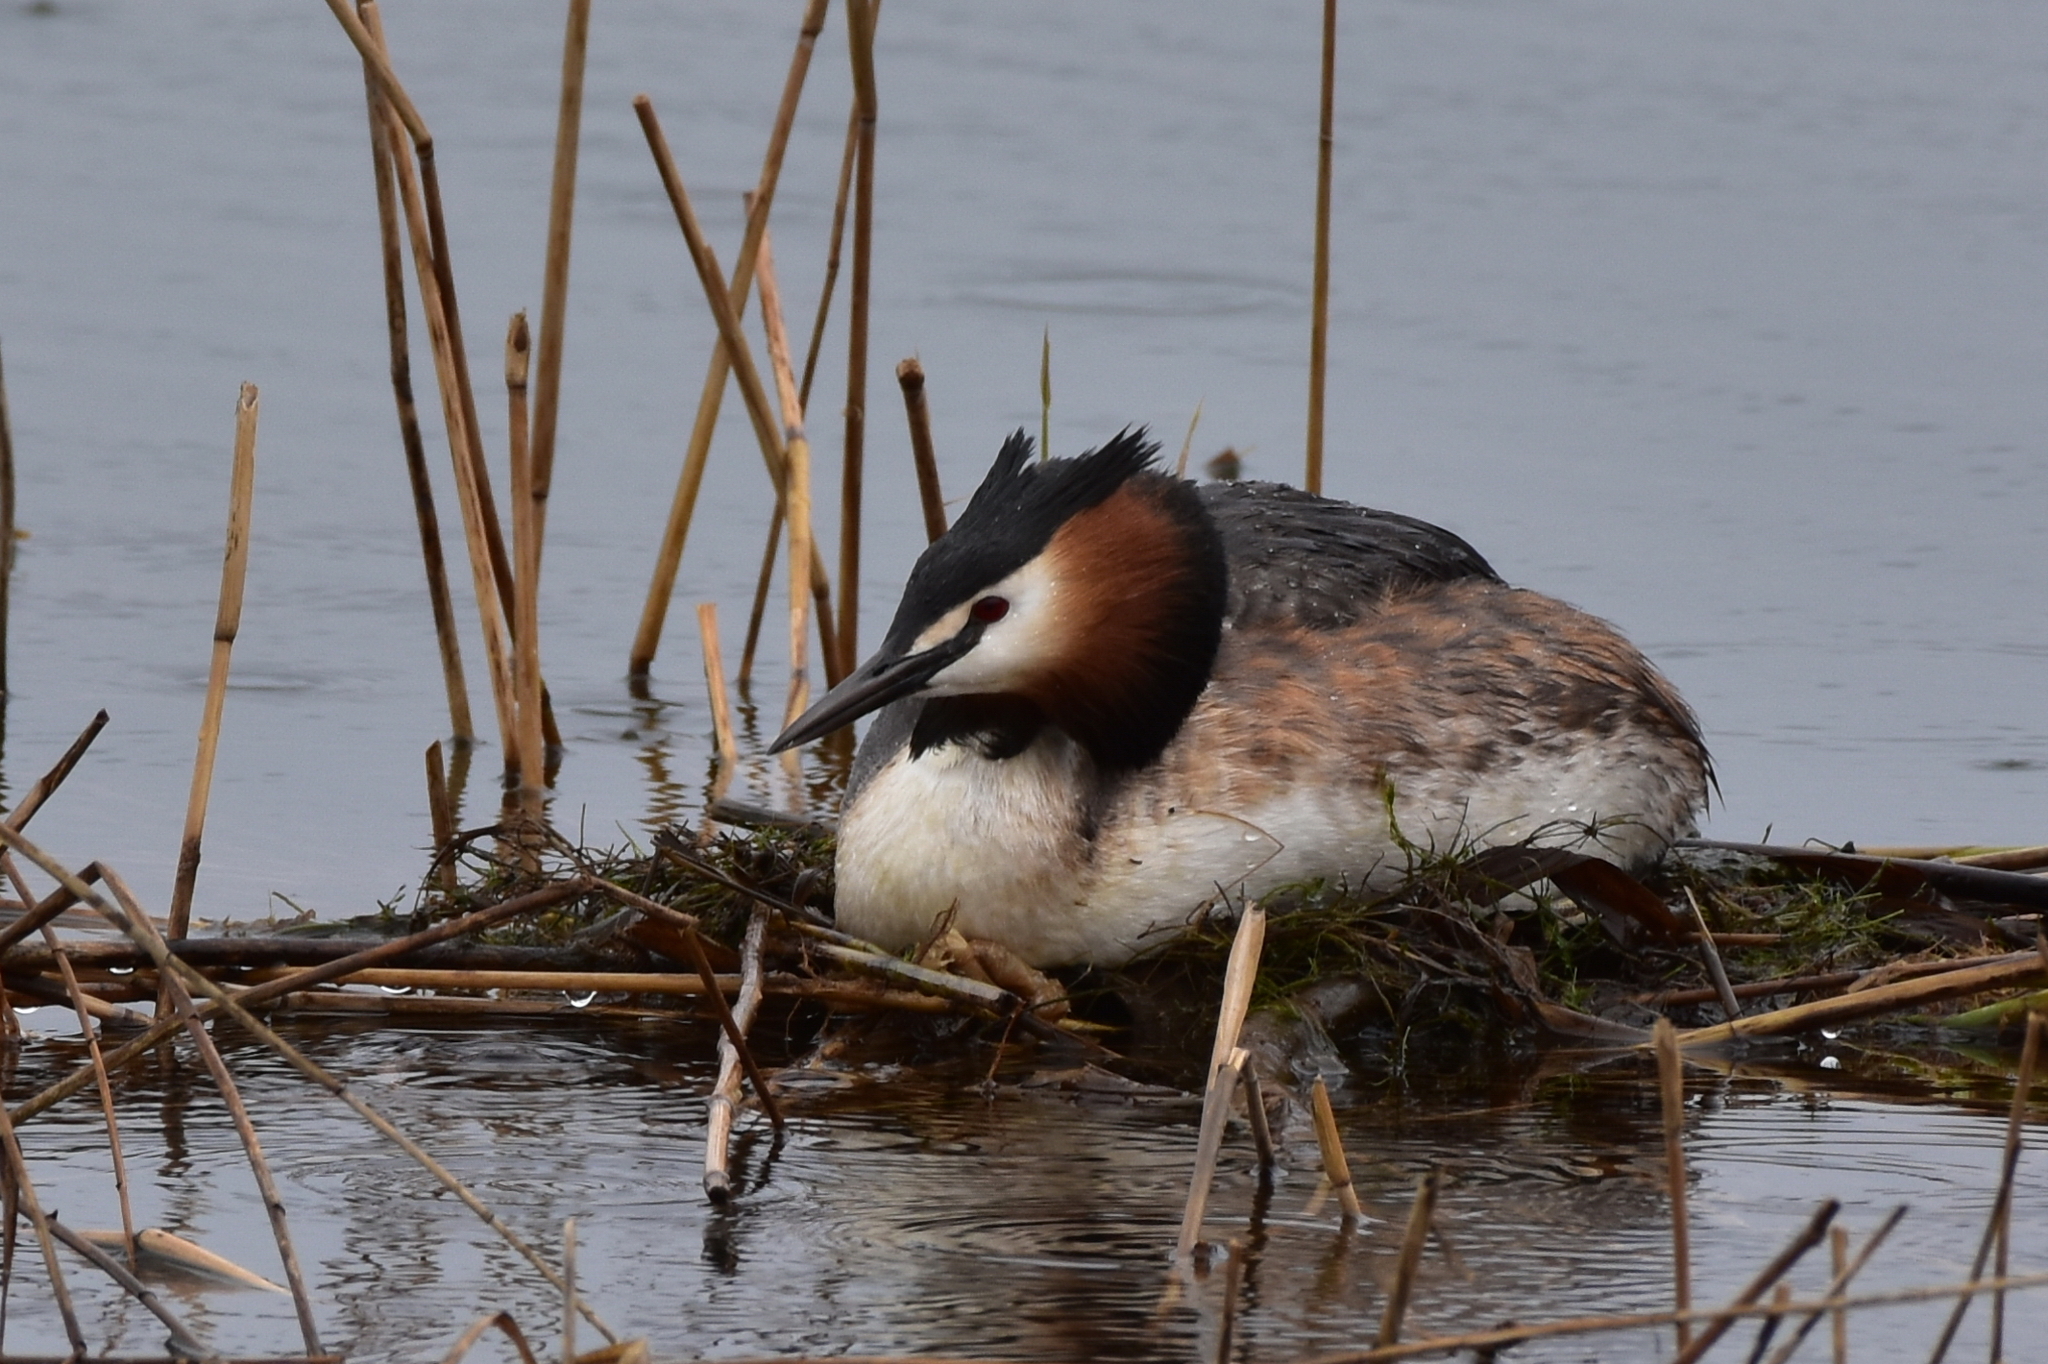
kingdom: Animalia
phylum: Chordata
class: Aves
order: Podicipediformes
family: Podicipedidae
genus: Podiceps
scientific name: Podiceps cristatus
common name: Great crested grebe
